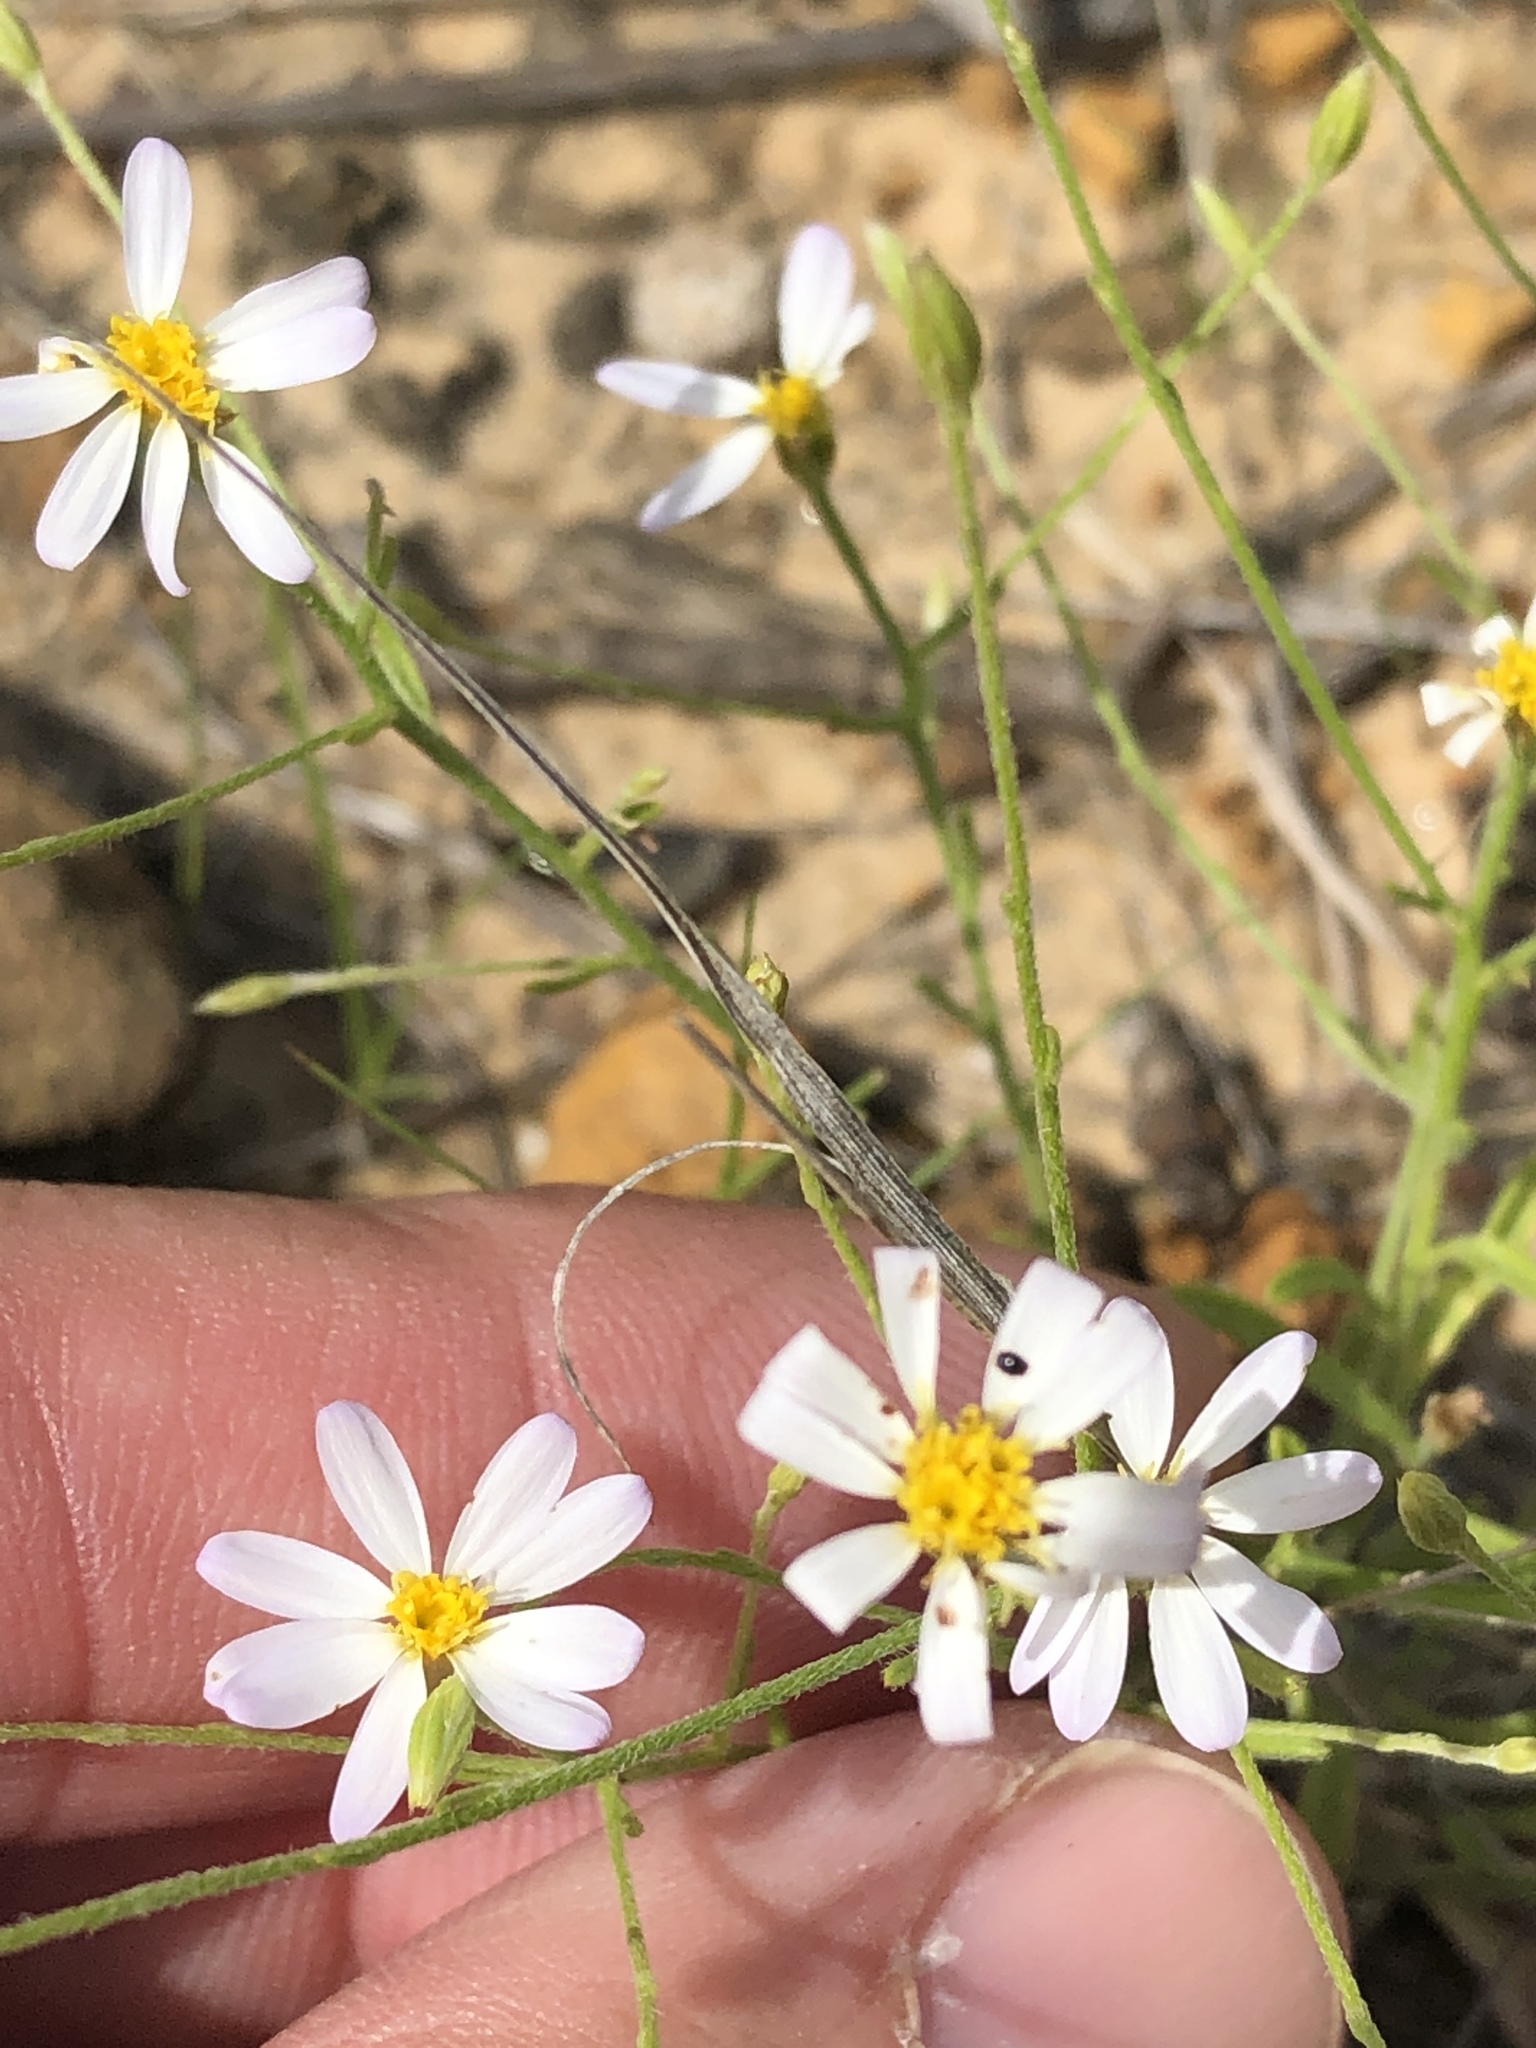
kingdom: Plantae
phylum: Tracheophyta
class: Magnoliopsida
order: Asterales
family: Asteraceae
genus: Chaetopappa
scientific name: Chaetopappa asteroides
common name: Tiny lazy daisy
